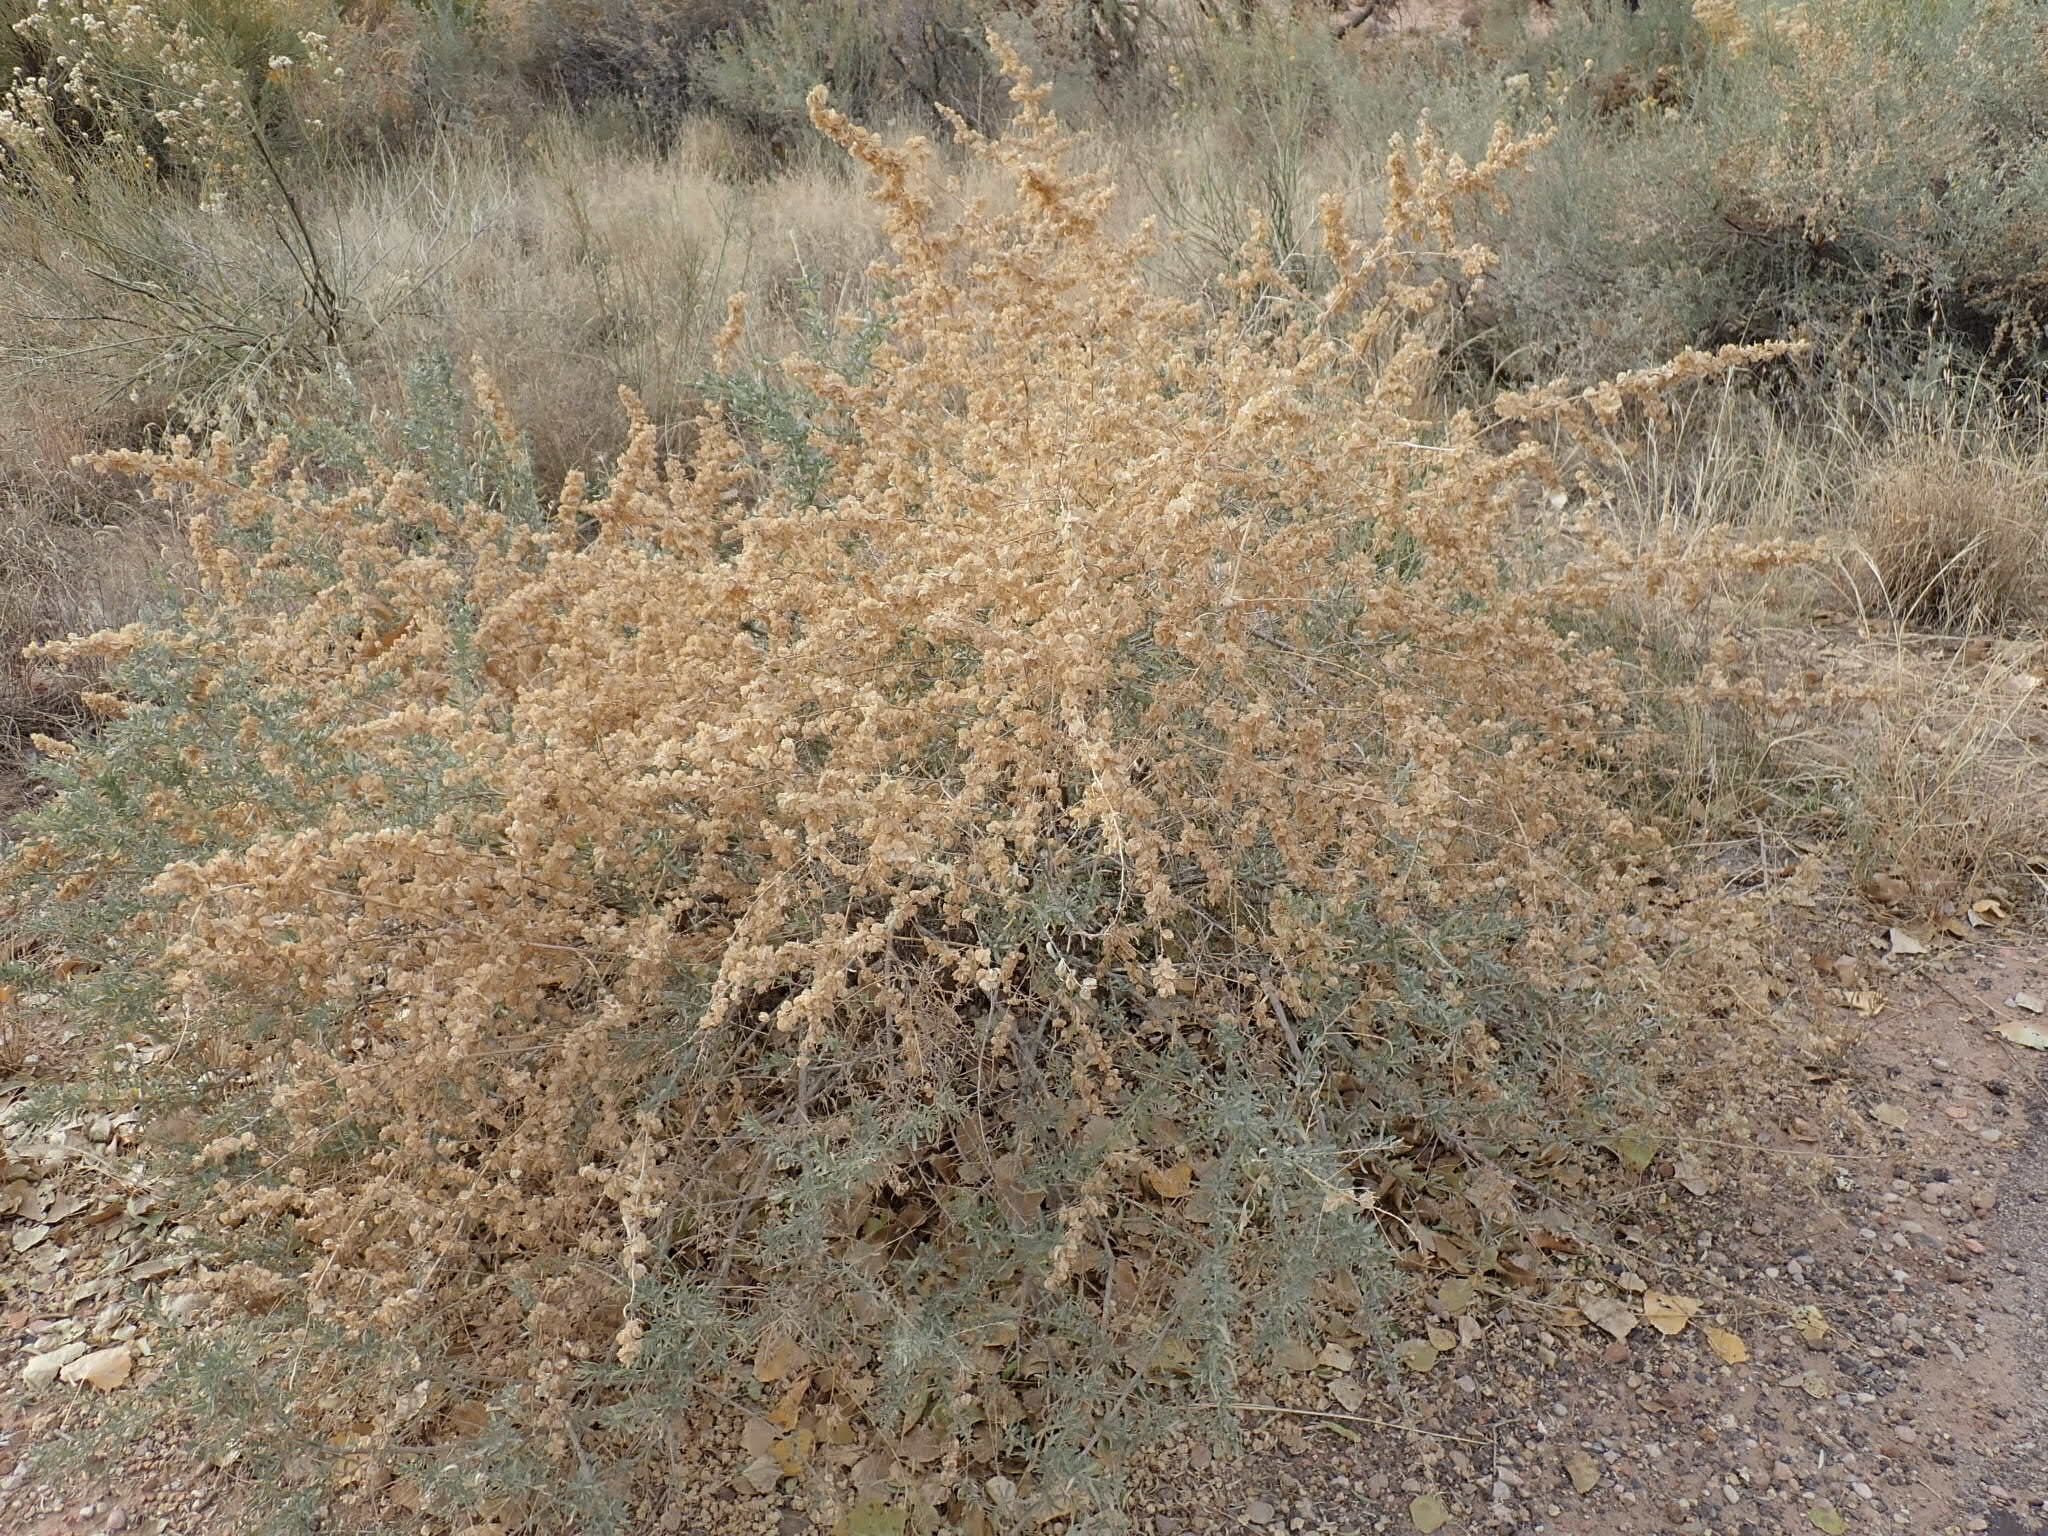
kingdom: Plantae
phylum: Tracheophyta
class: Magnoliopsida
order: Caryophyllales
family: Amaranthaceae
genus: Atriplex
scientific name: Atriplex canescens
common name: Four-wing saltbush
